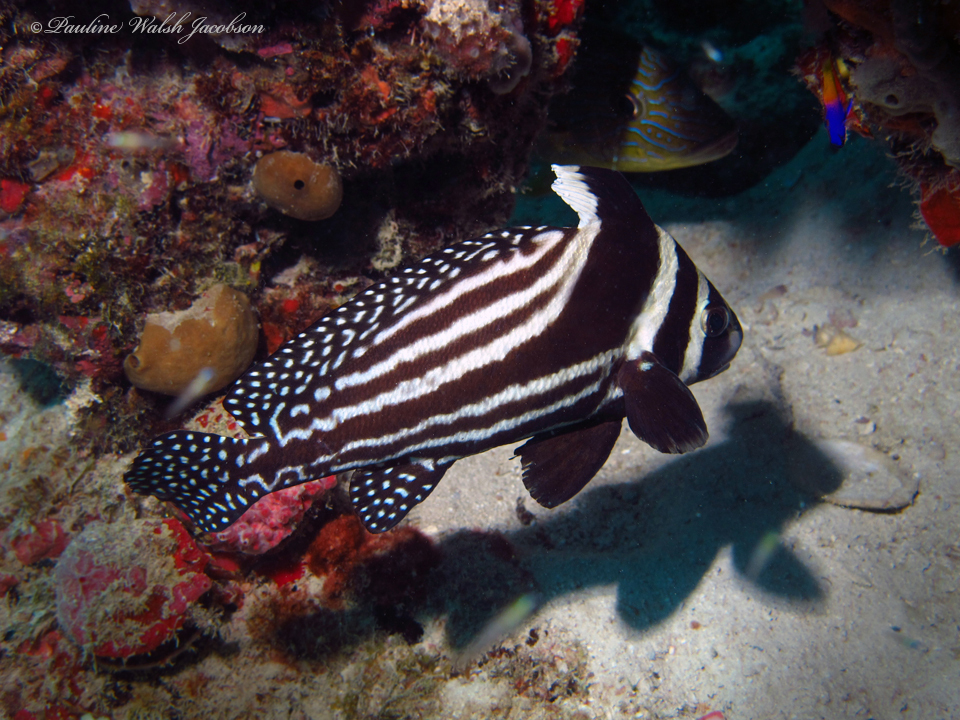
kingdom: Animalia
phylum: Chordata
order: Perciformes
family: Sciaenidae
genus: Equetus
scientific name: Equetus punctatus
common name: Spotted drum
